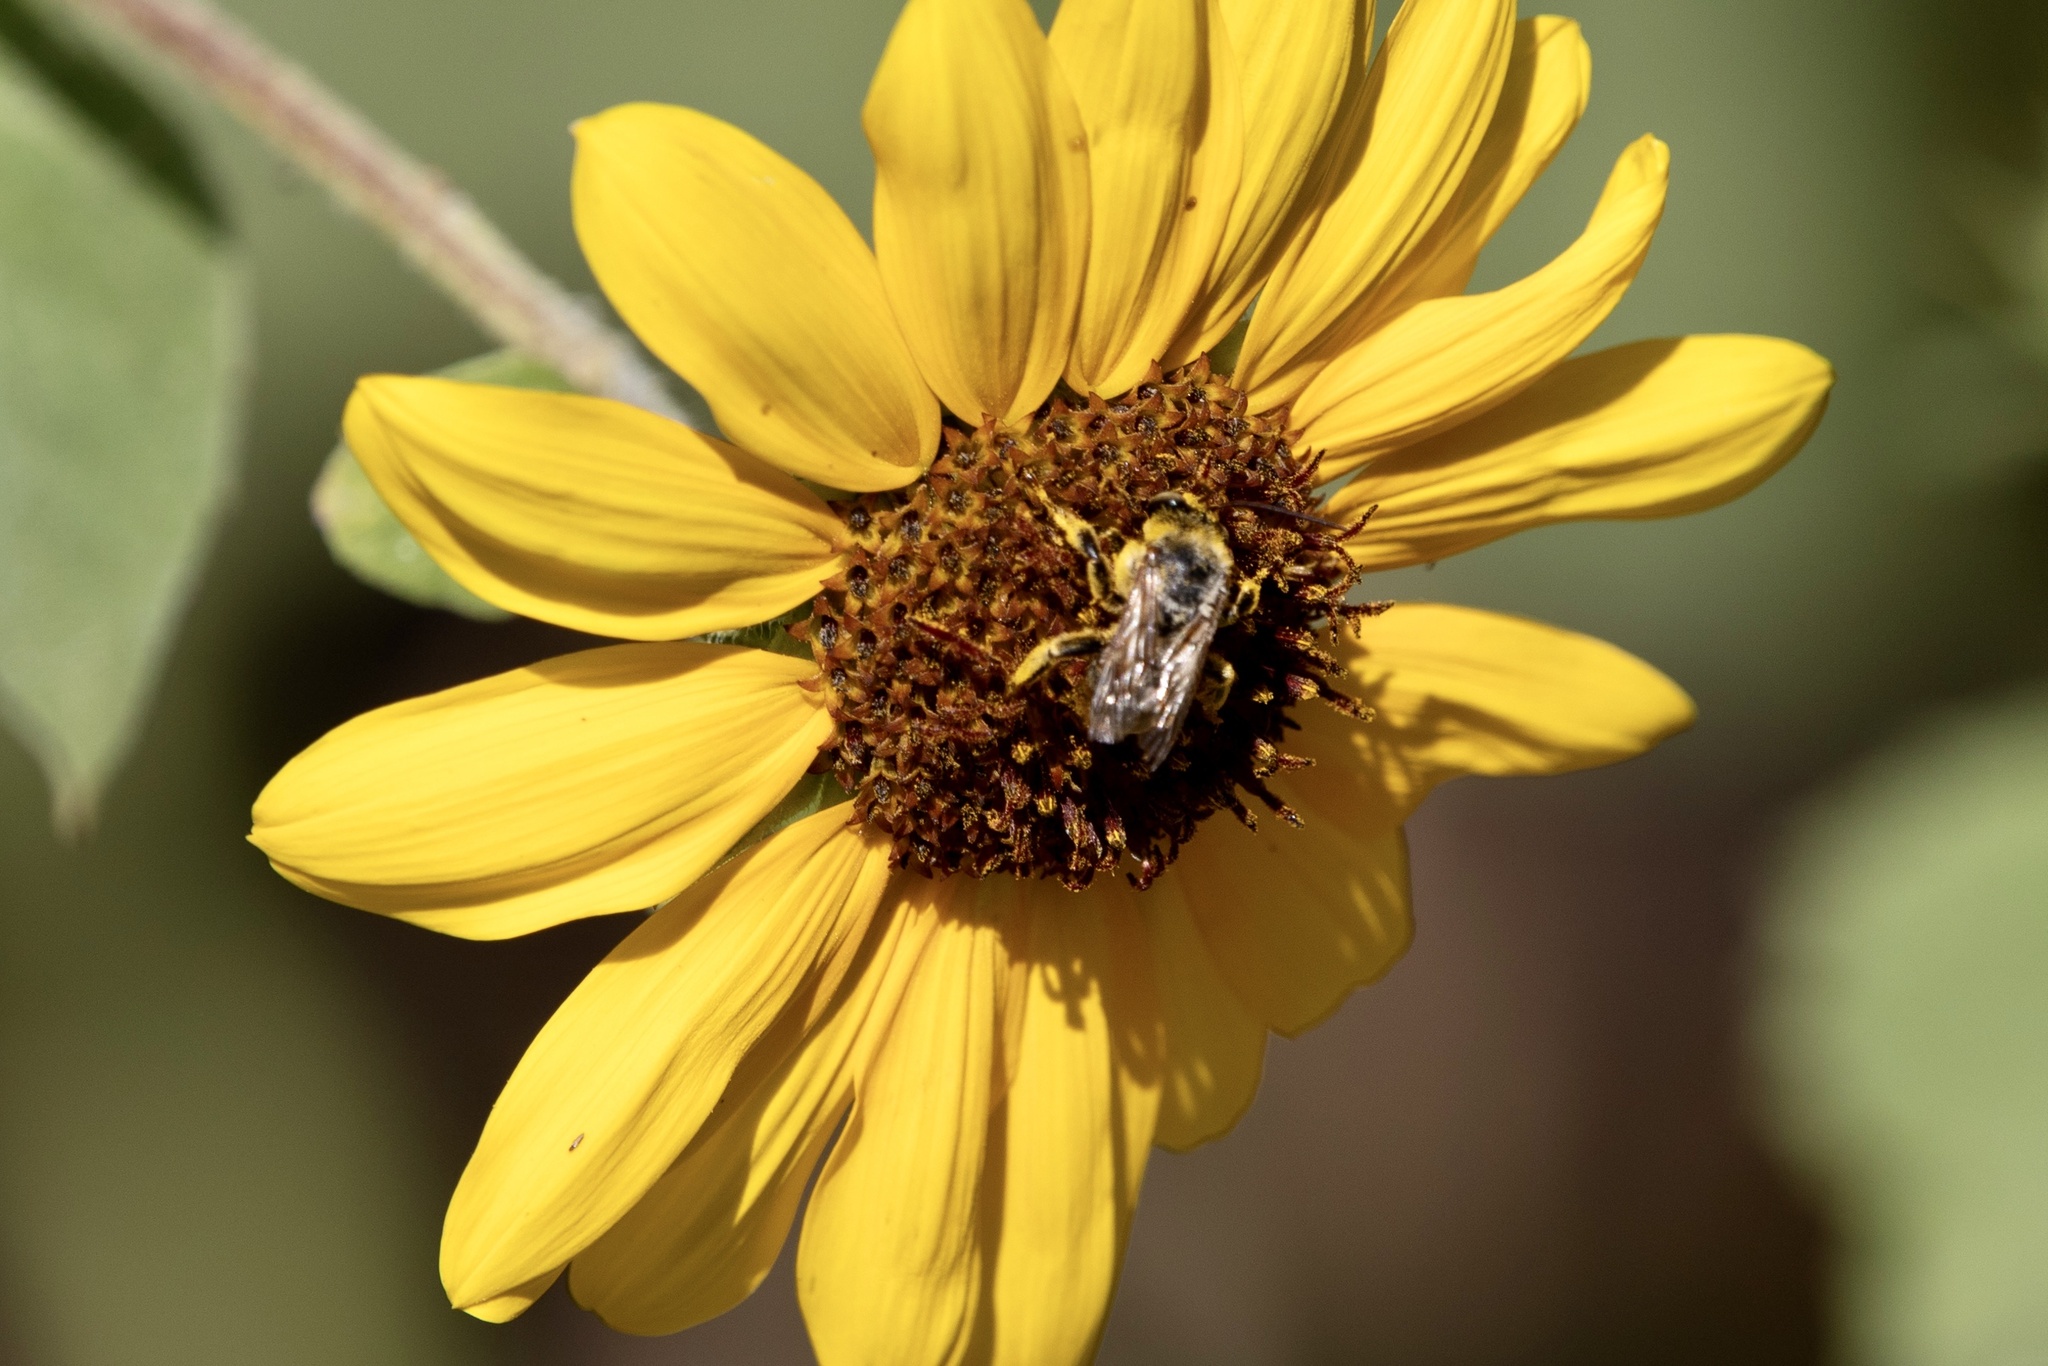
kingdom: Animalia
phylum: Arthropoda
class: Insecta
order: Hymenoptera
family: Apidae
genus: Svastra
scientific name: Svastra obliqua
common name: Oblique longhorn
